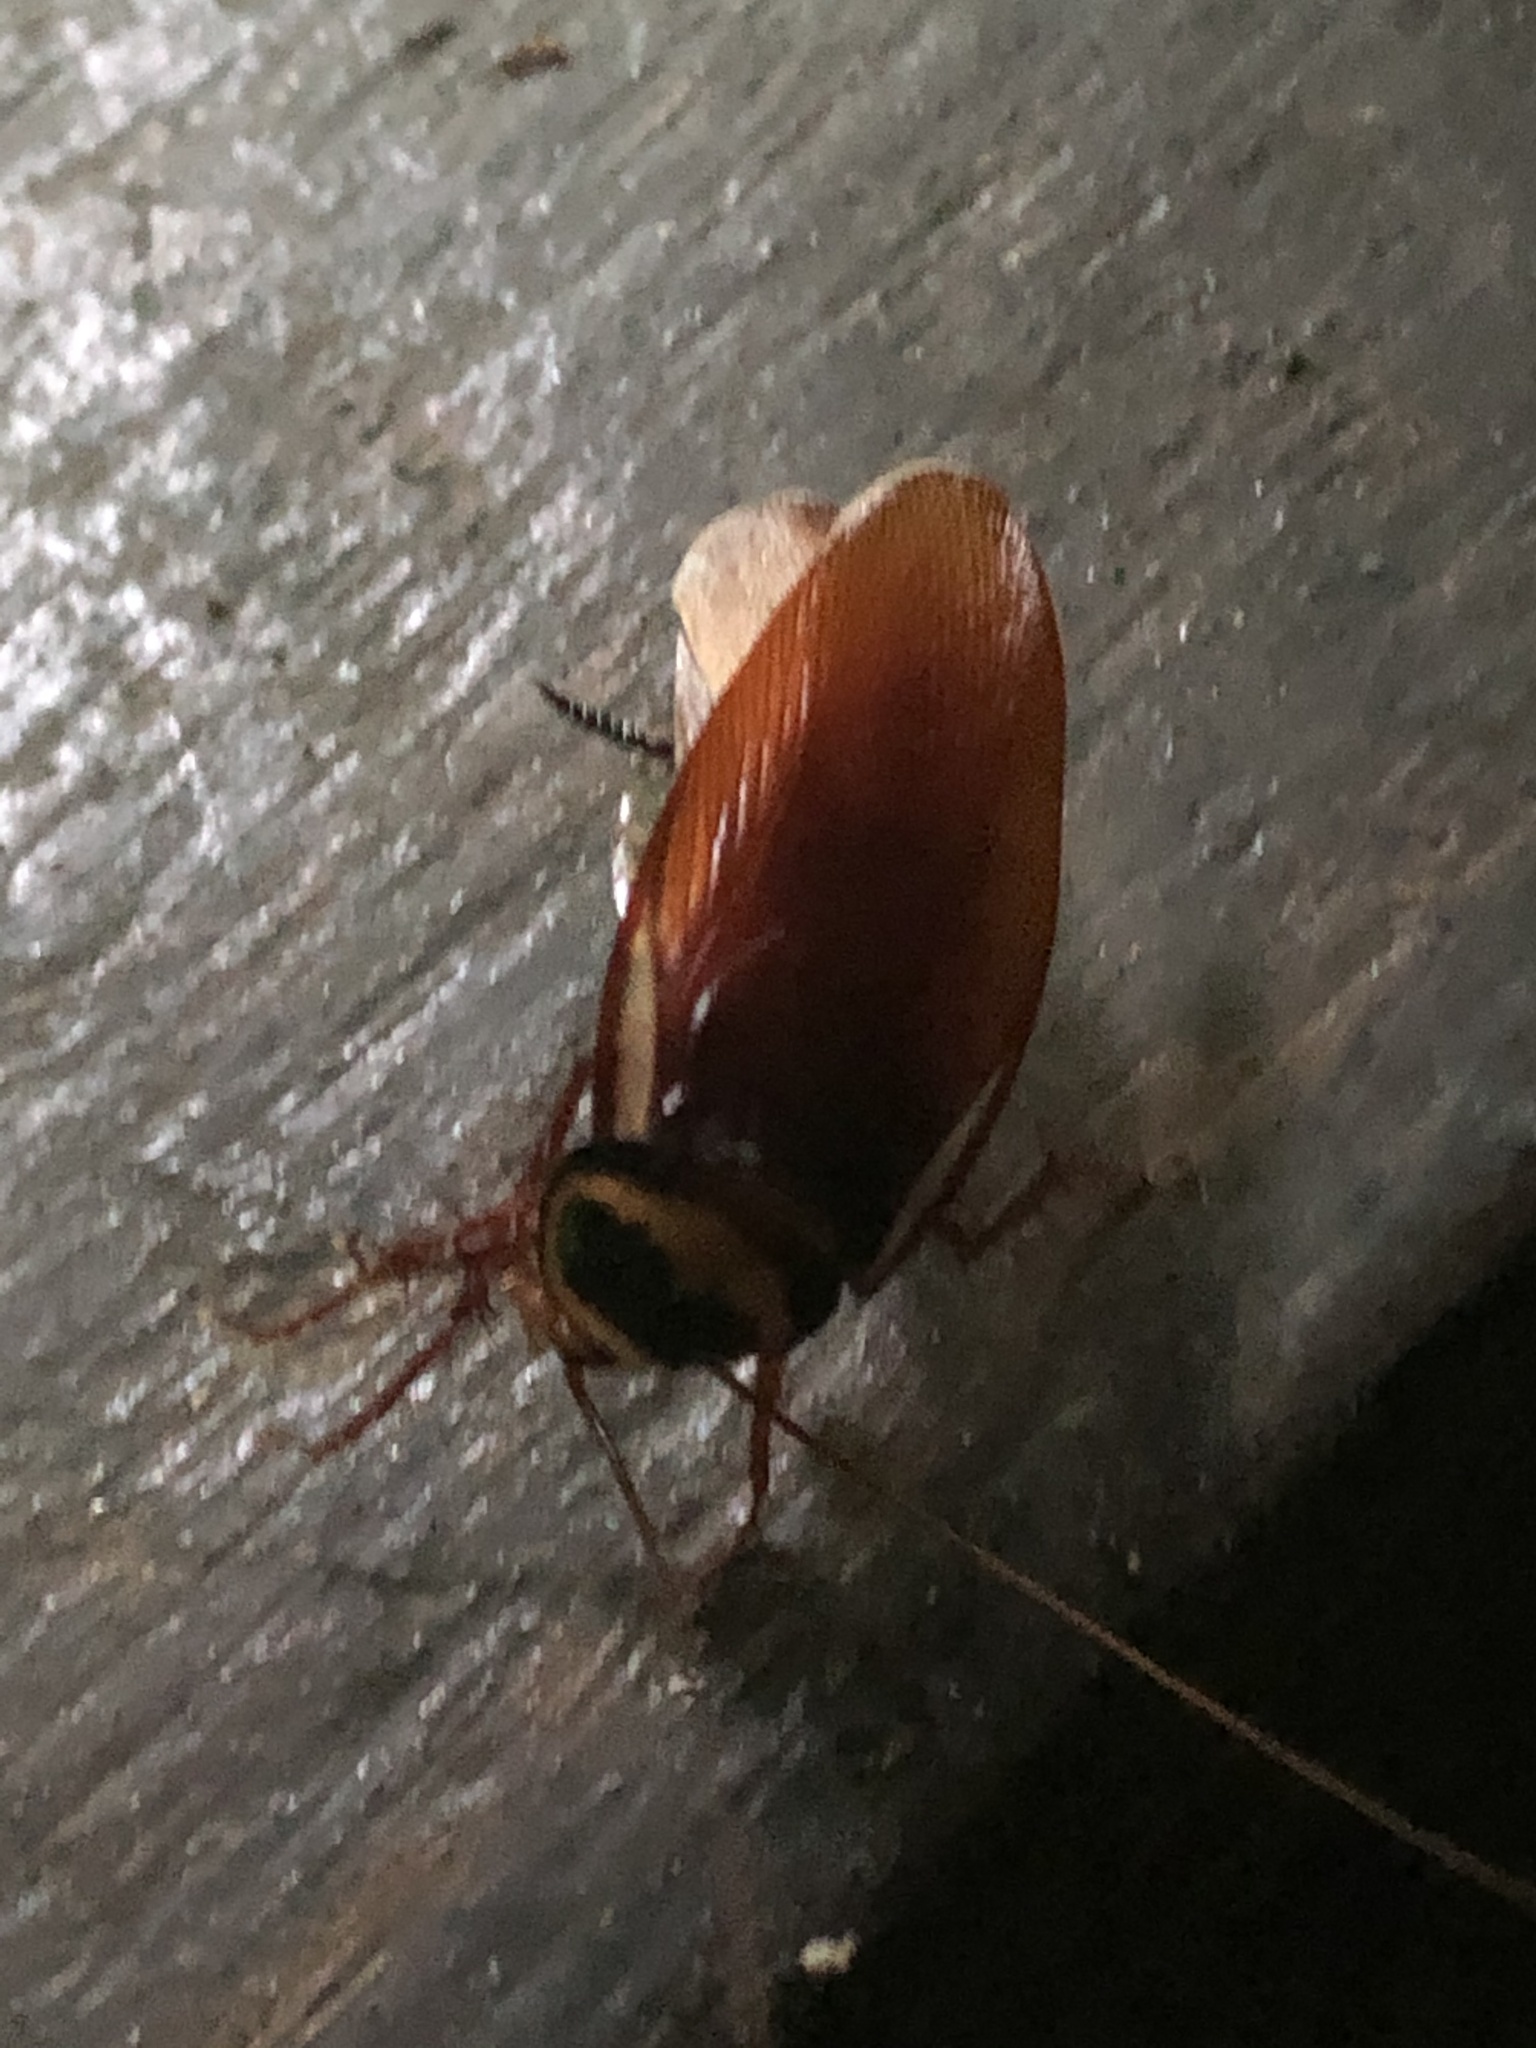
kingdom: Animalia
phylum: Arthropoda
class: Insecta
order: Blattodea
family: Blattidae
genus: Periplaneta
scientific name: Periplaneta australasiae
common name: Australian cockroach
